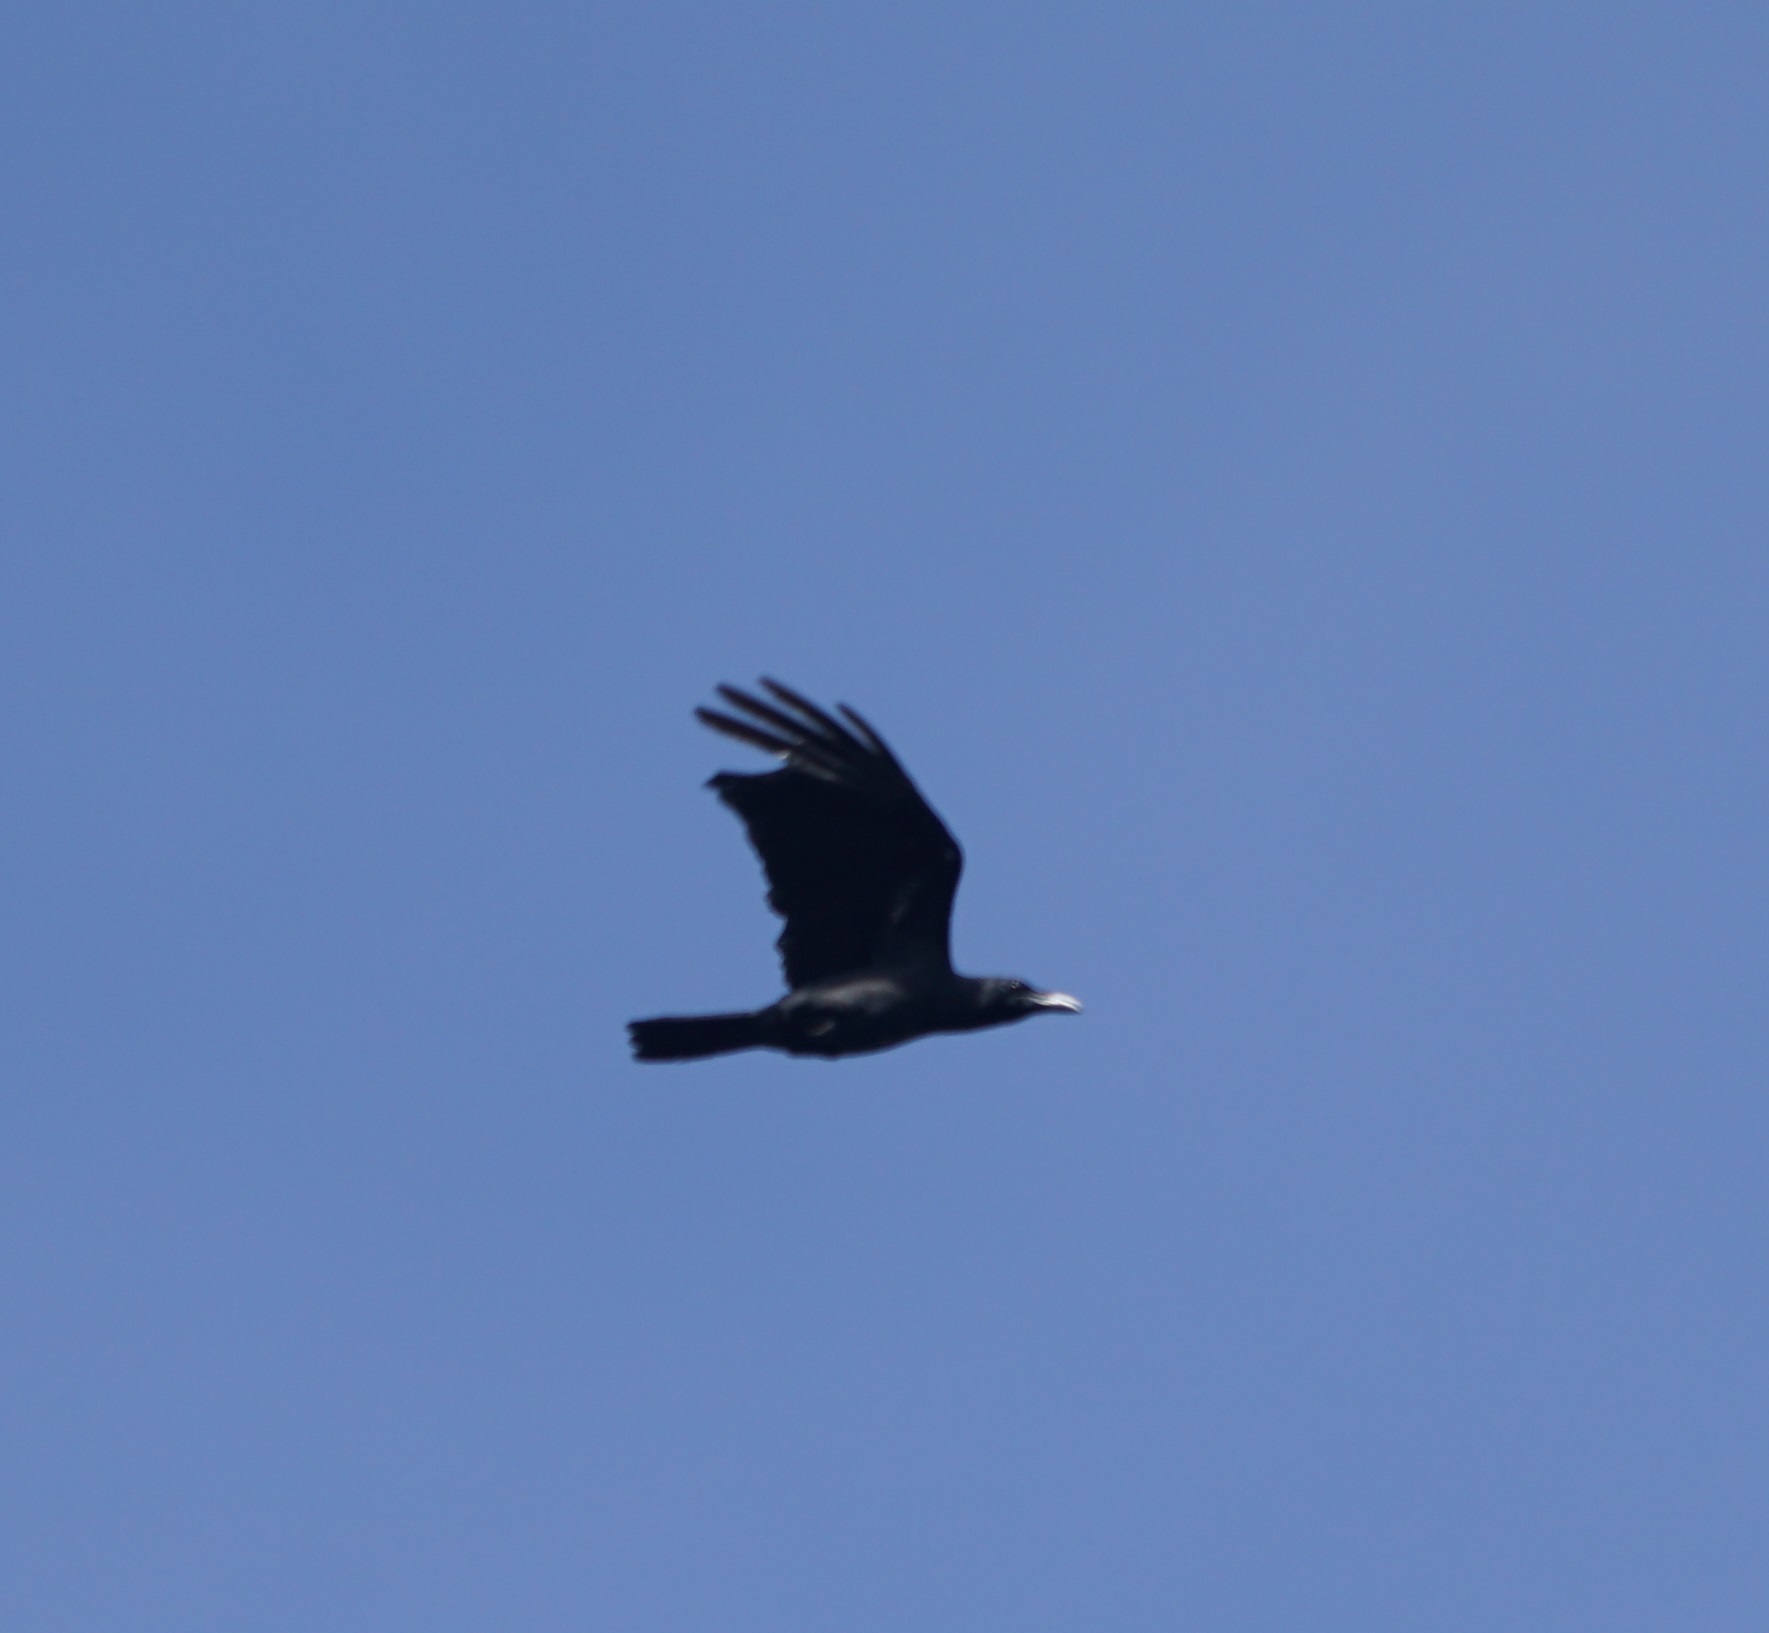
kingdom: Animalia
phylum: Chordata
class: Aves
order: Passeriformes
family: Corvidae
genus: Corvus
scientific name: Corvus enca
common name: Slender-billed crow
